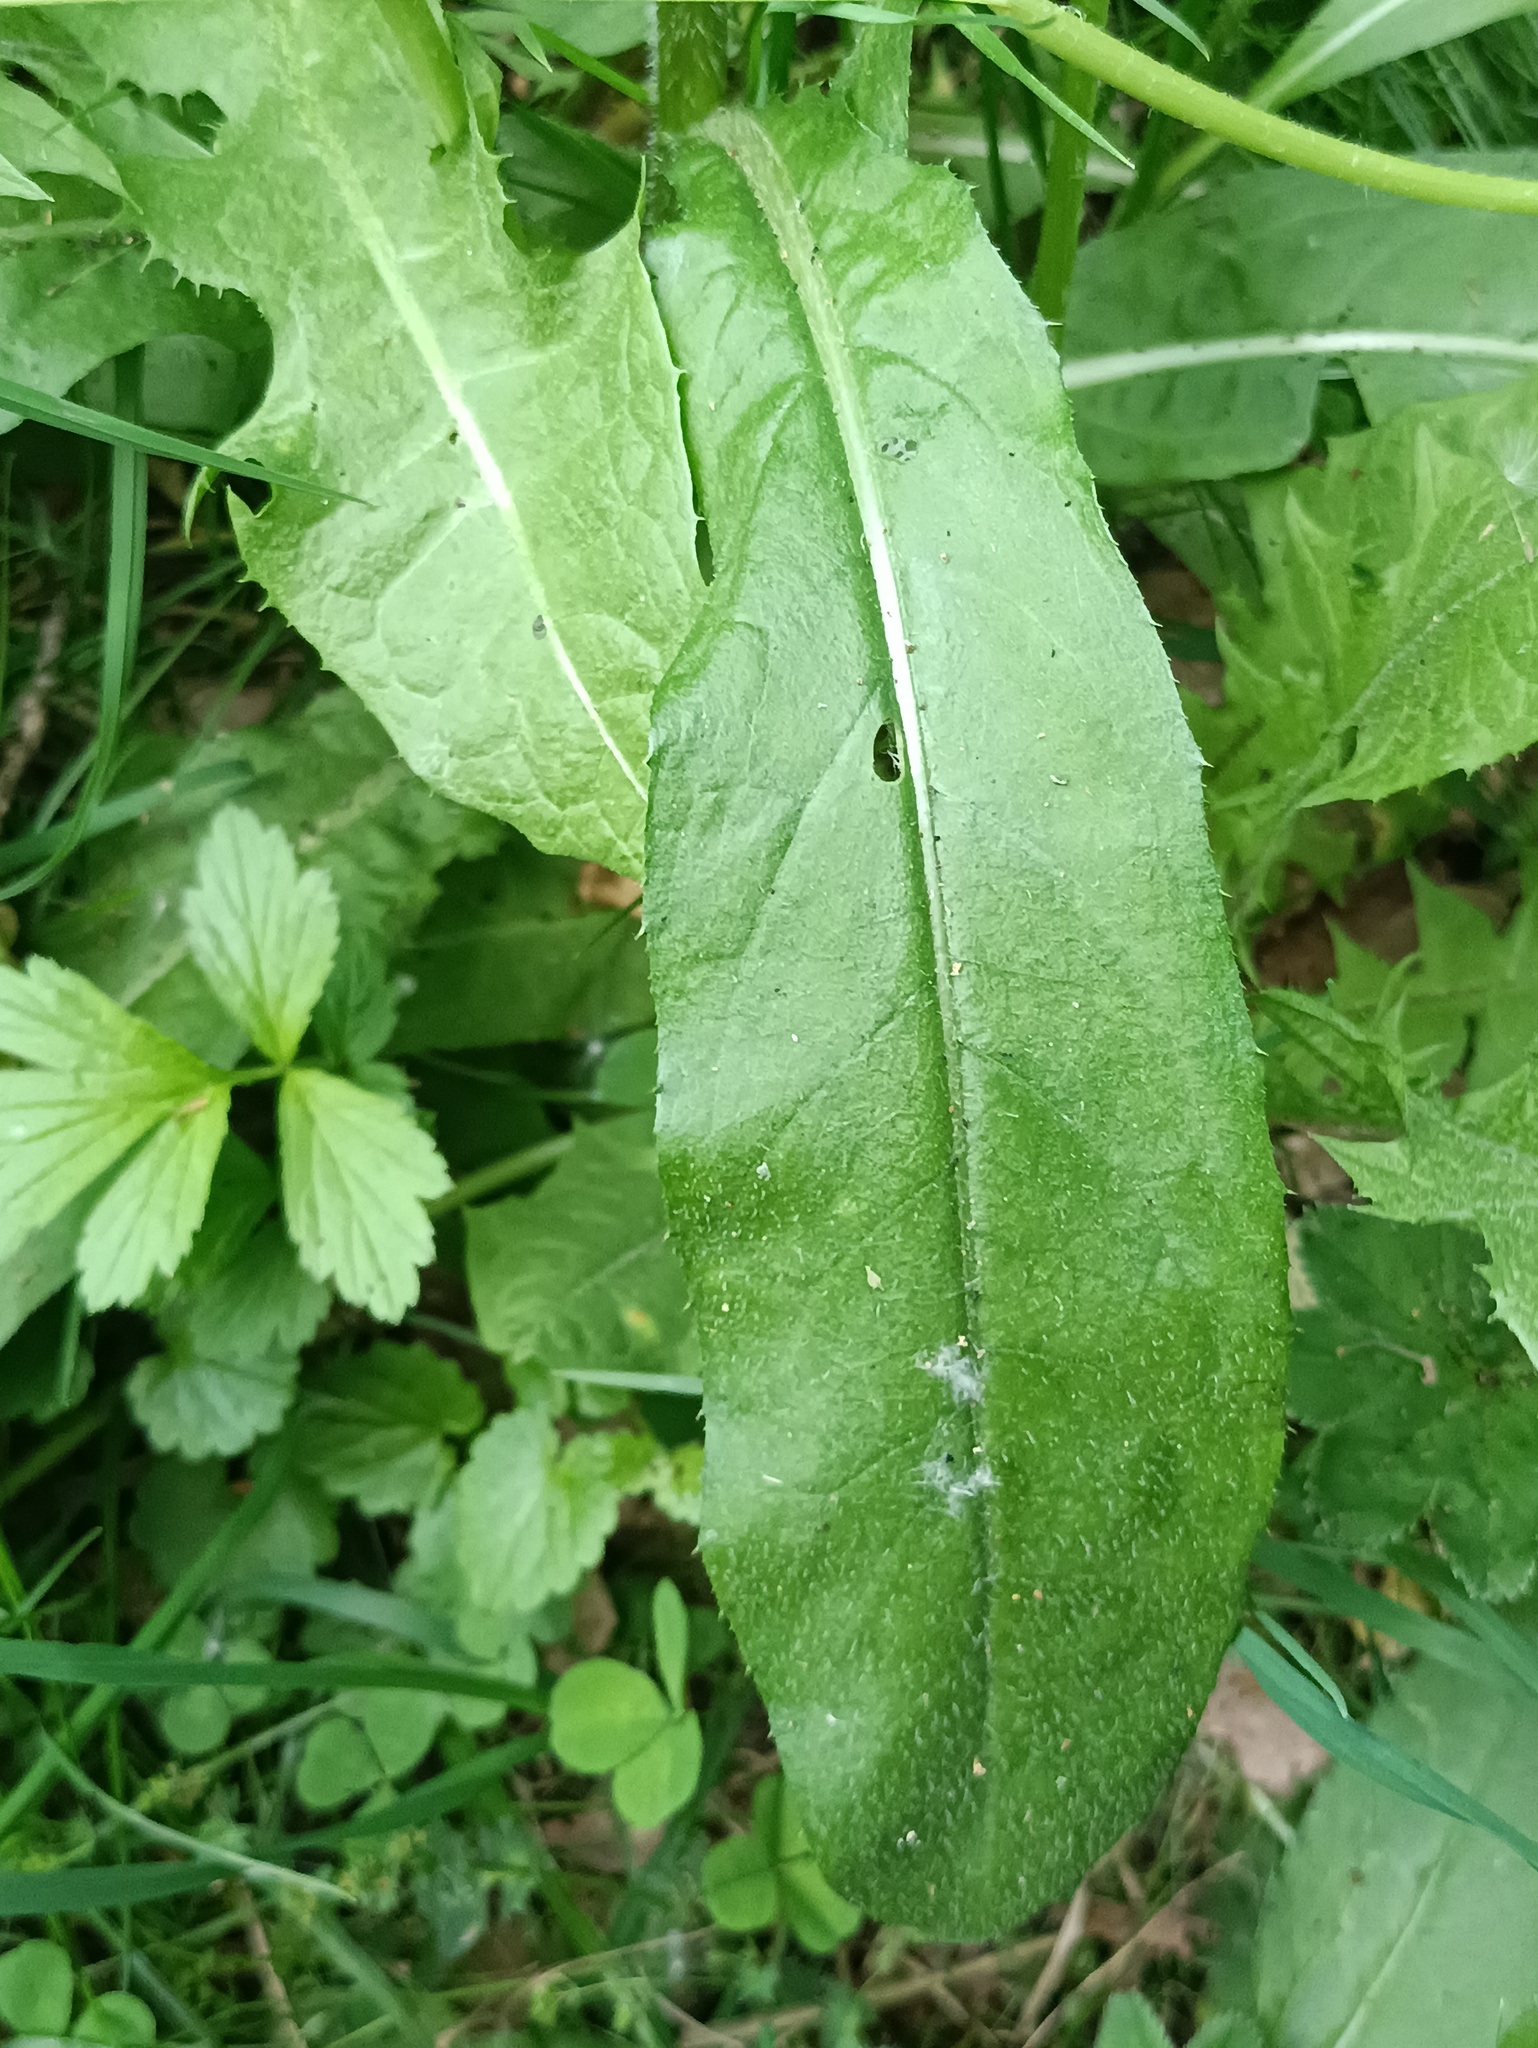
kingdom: Plantae
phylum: Tracheophyta
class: Magnoliopsida
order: Asterales
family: Asteraceae
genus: Cirsium
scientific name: Cirsium arvense
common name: Creeping thistle
